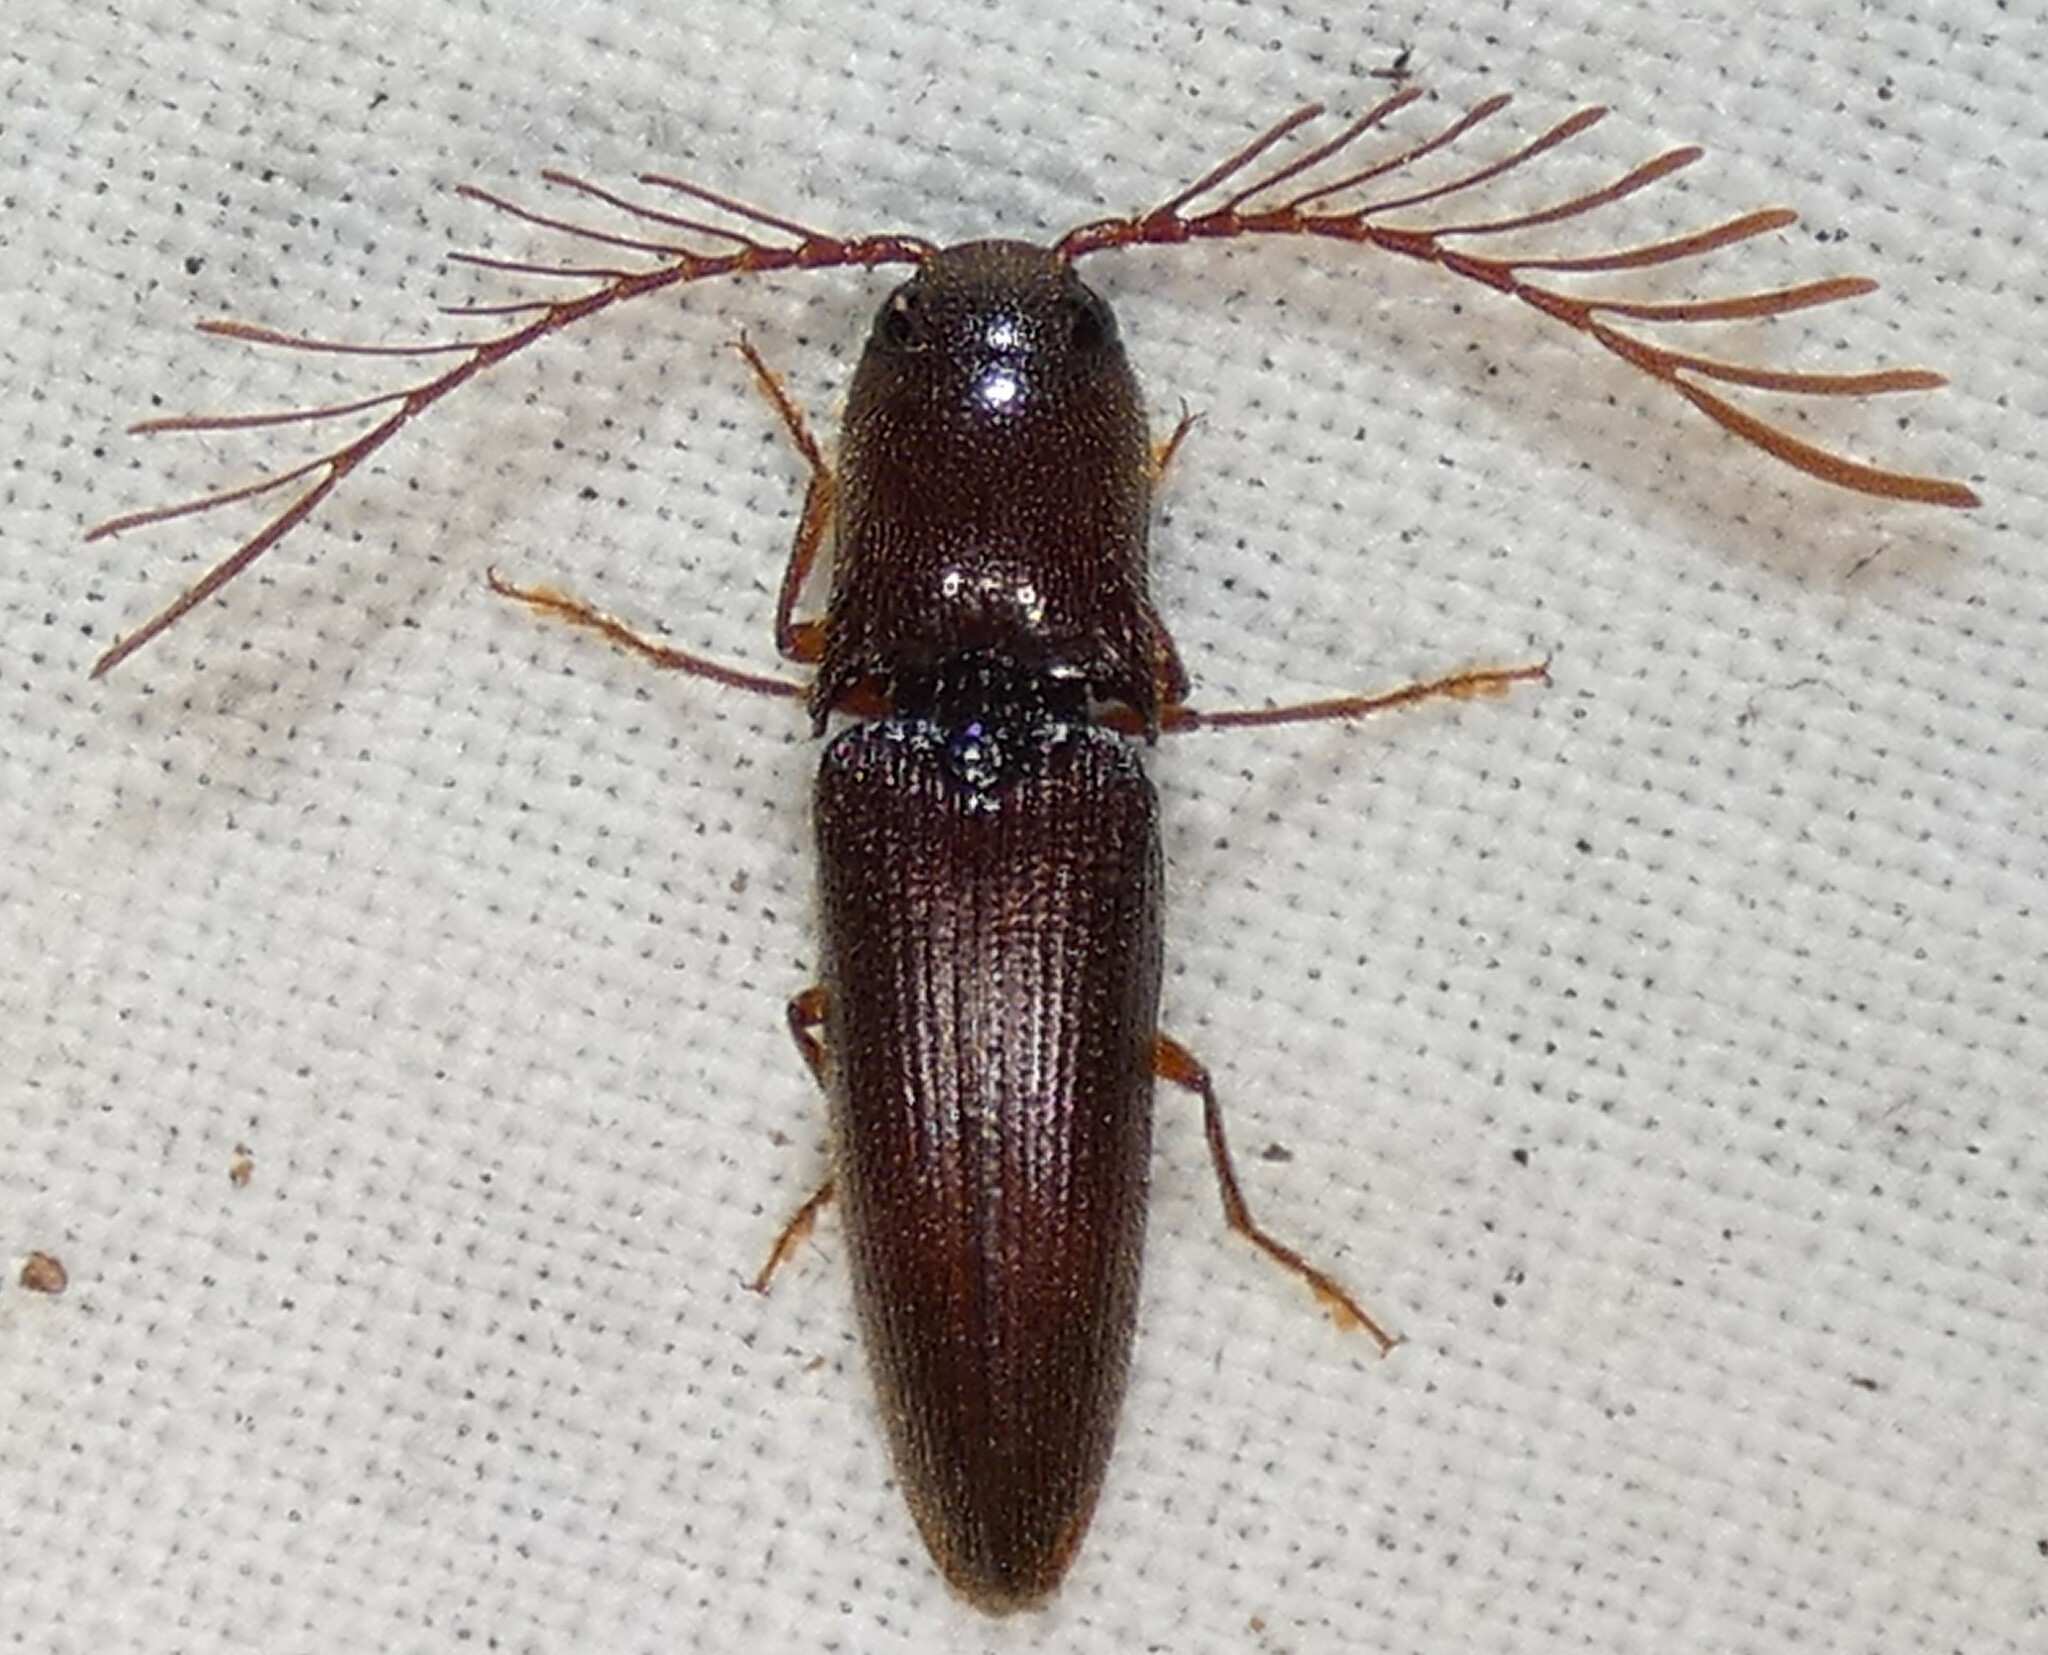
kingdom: Animalia
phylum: Arthropoda
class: Insecta
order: Coleoptera
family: Elateridae
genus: Dicrepidius
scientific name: Dicrepidius palmatus
